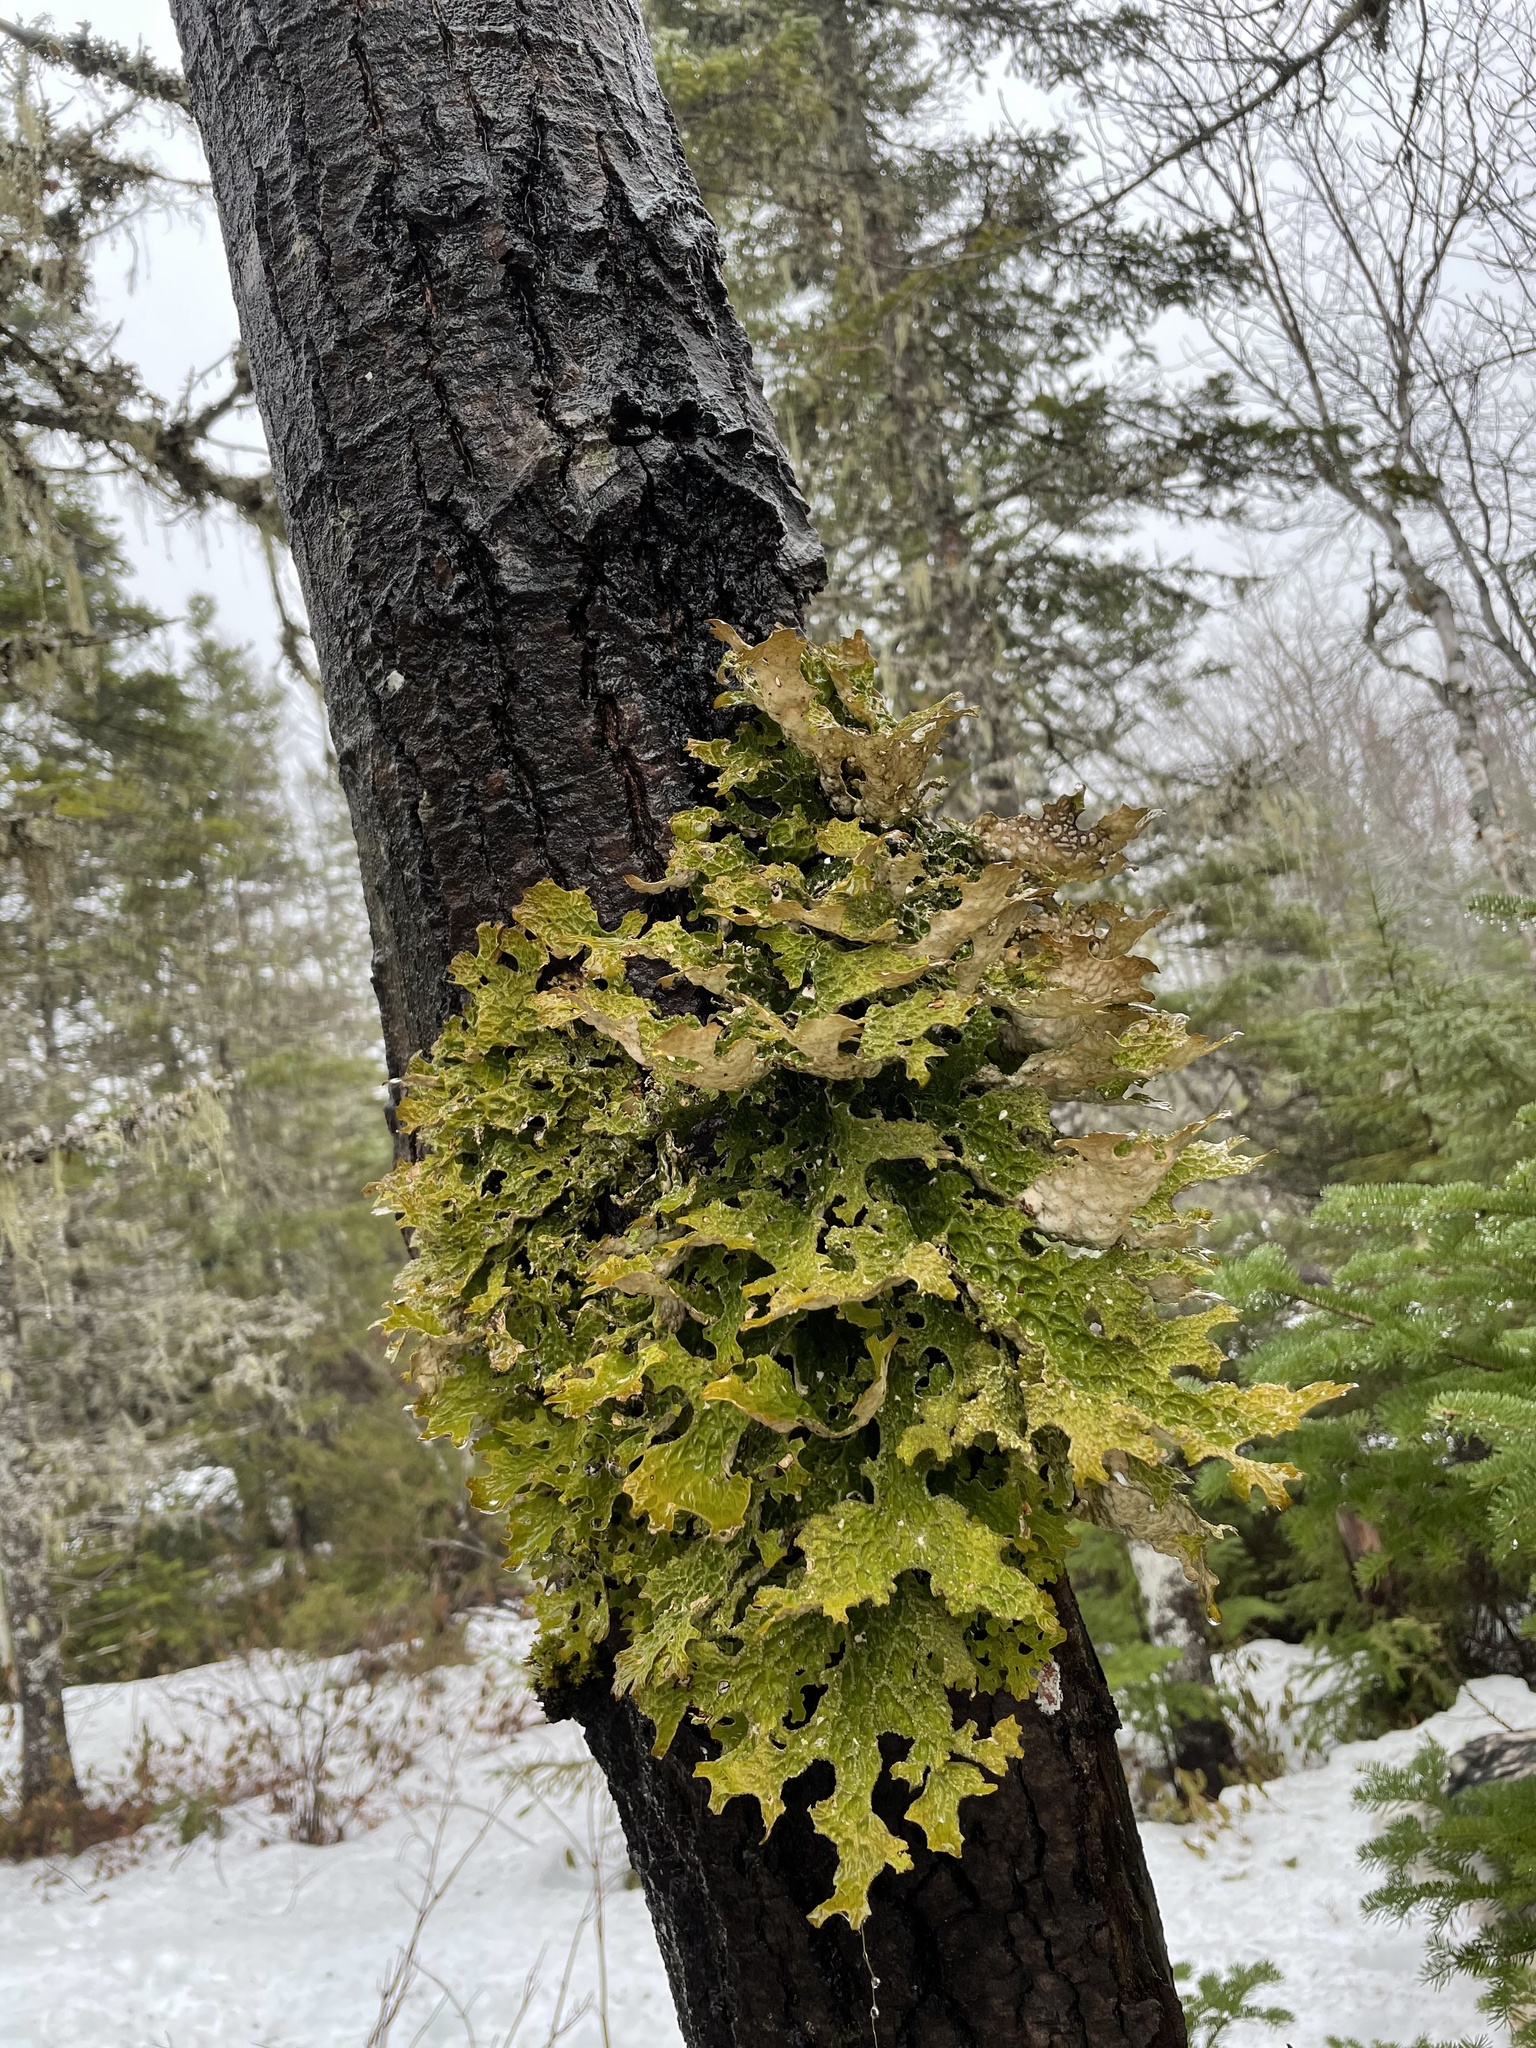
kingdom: Fungi
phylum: Ascomycota
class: Lecanoromycetes
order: Peltigerales
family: Lobariaceae
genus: Lobaria
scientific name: Lobaria pulmonaria
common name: Lungwort
